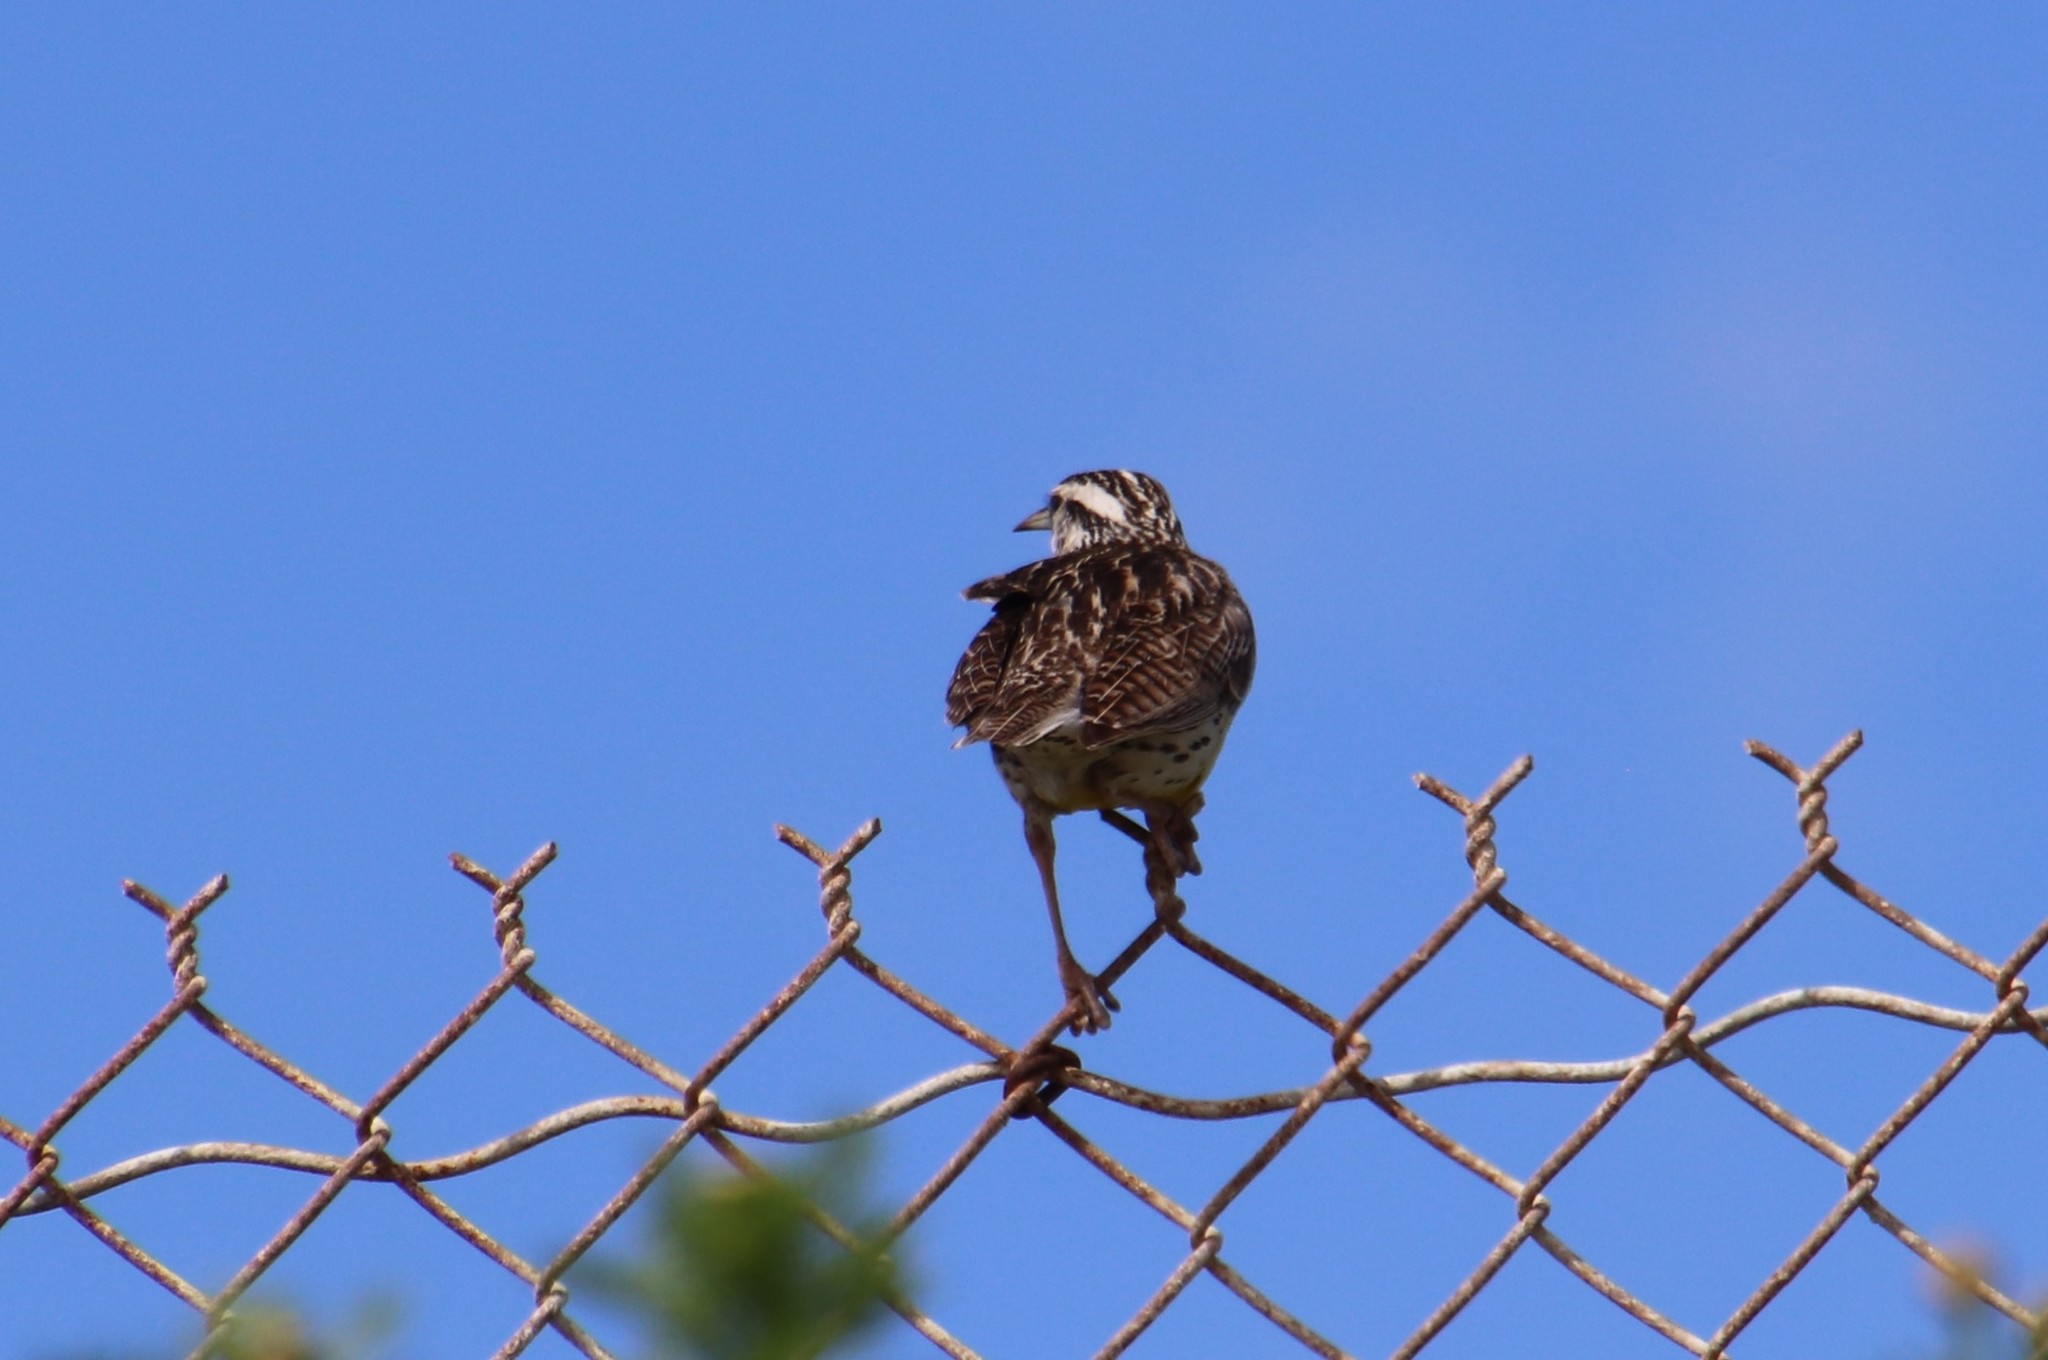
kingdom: Animalia
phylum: Chordata
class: Aves
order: Passeriformes
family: Icteridae
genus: Sturnella
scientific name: Sturnella neglecta
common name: Western meadowlark
